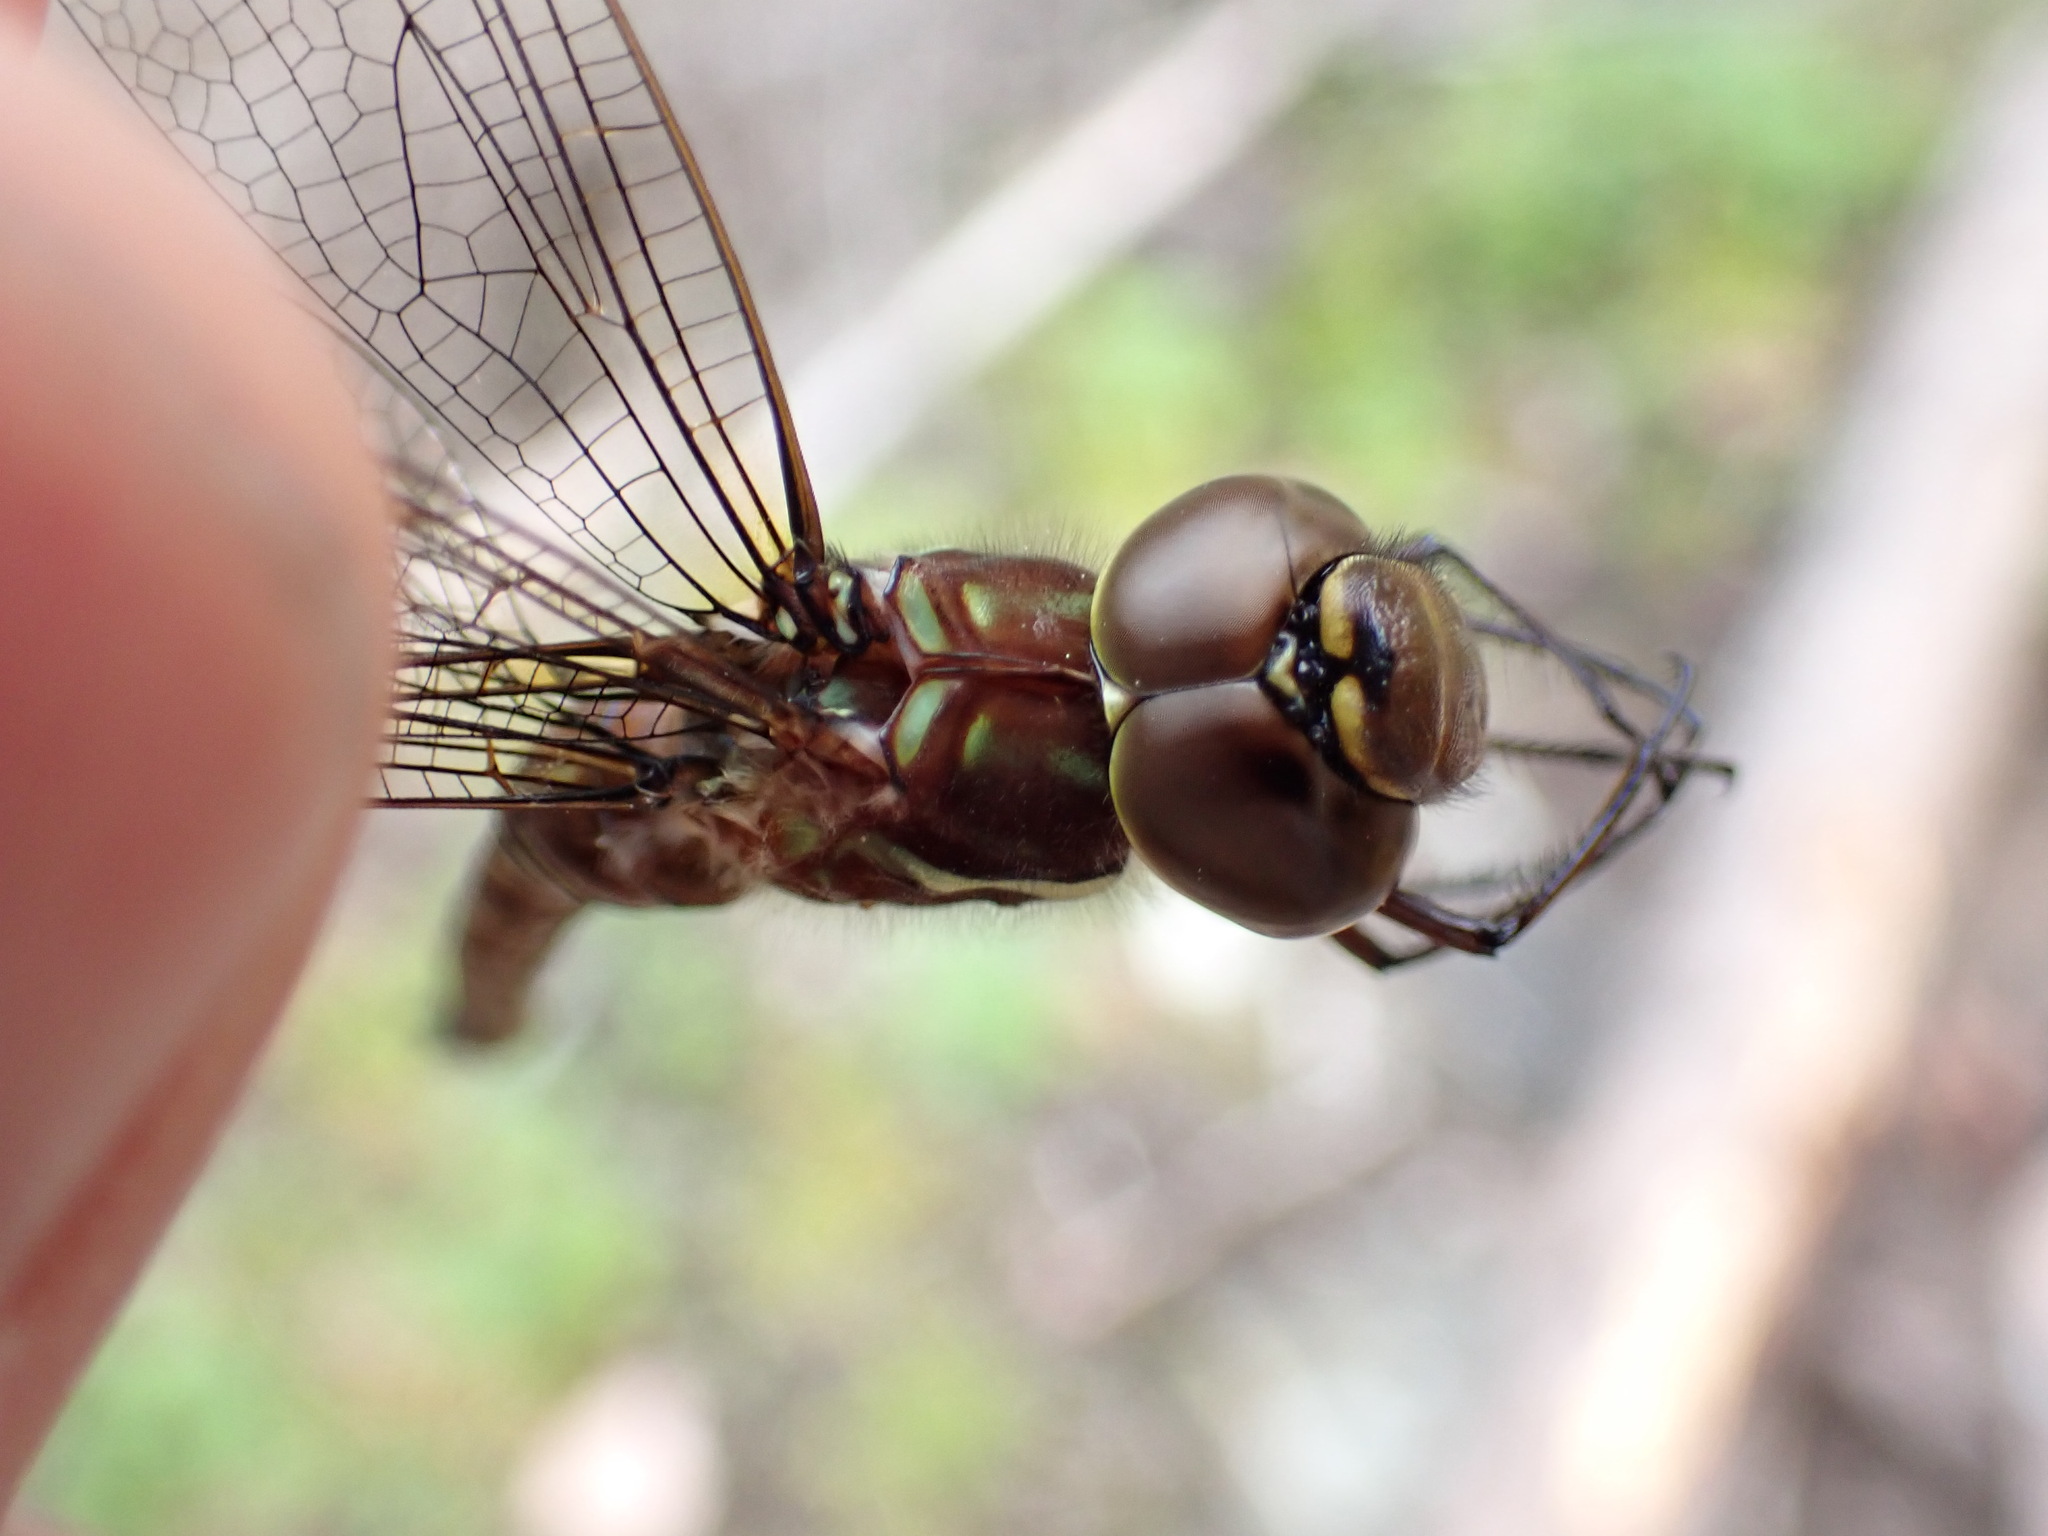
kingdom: Animalia
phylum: Arthropoda
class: Insecta
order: Odonata
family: Aeshnidae
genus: Aeshna
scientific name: Aeshna umbrosa
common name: Shadow darner
